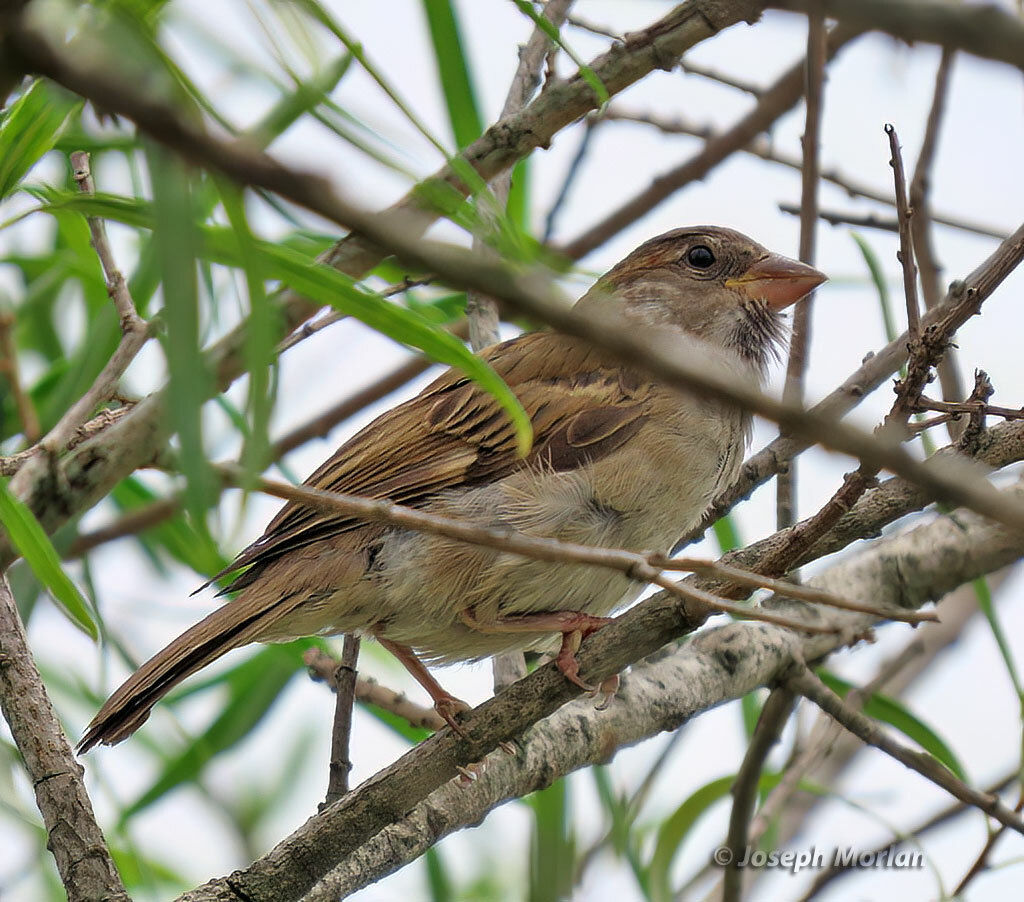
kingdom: Animalia
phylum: Chordata
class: Aves
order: Passeriformes
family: Passeridae
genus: Passer
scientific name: Passer domesticus
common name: House sparrow
